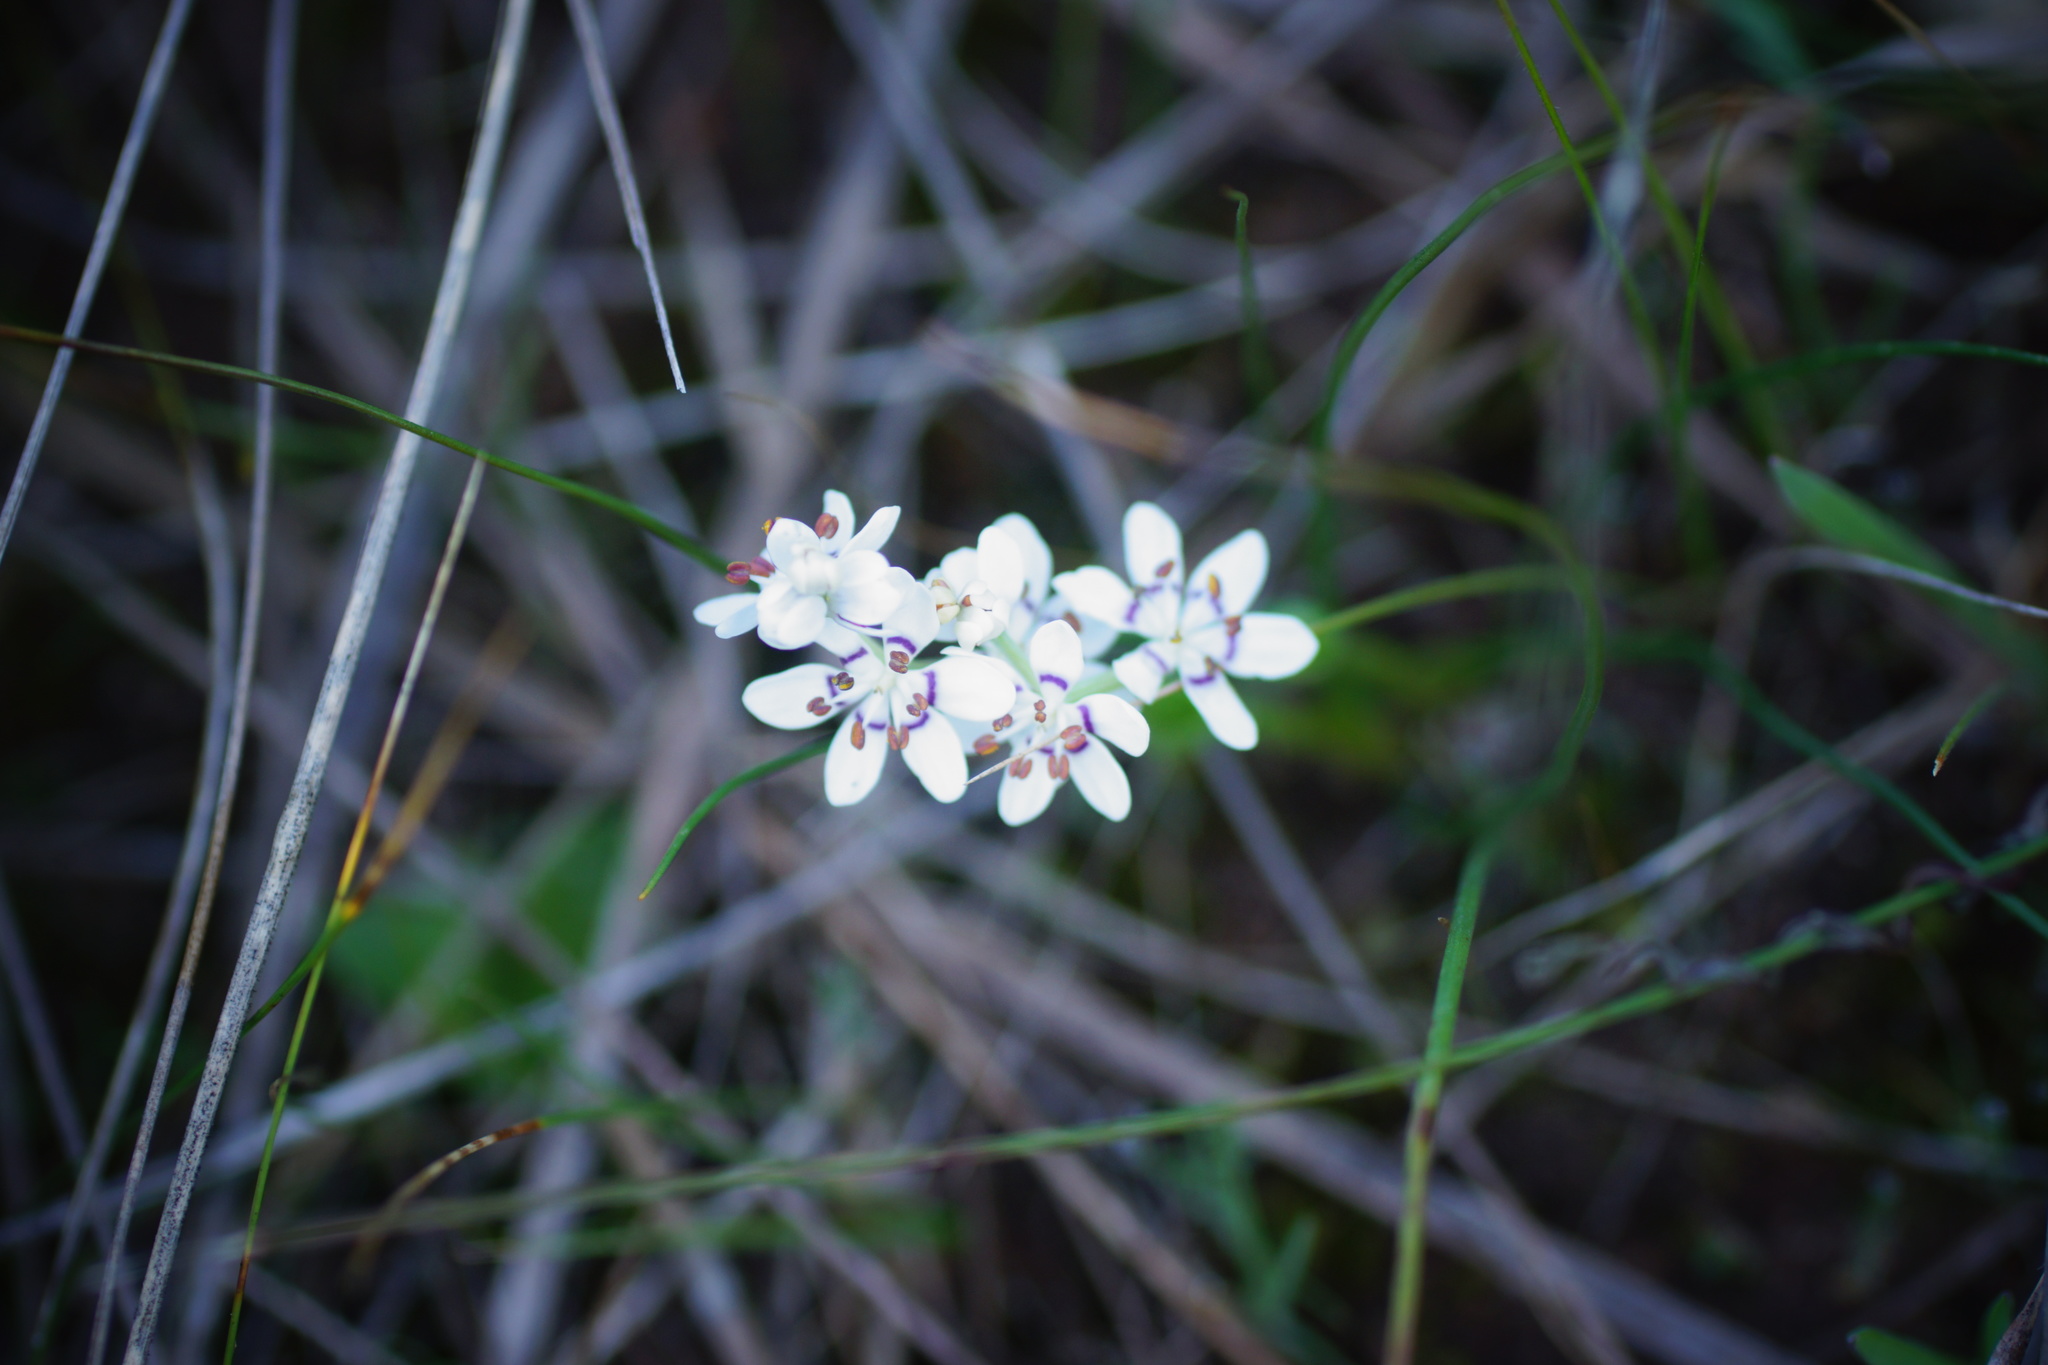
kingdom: Plantae
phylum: Tracheophyta
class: Liliopsida
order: Liliales
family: Colchicaceae
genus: Wurmbea
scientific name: Wurmbea dioica
